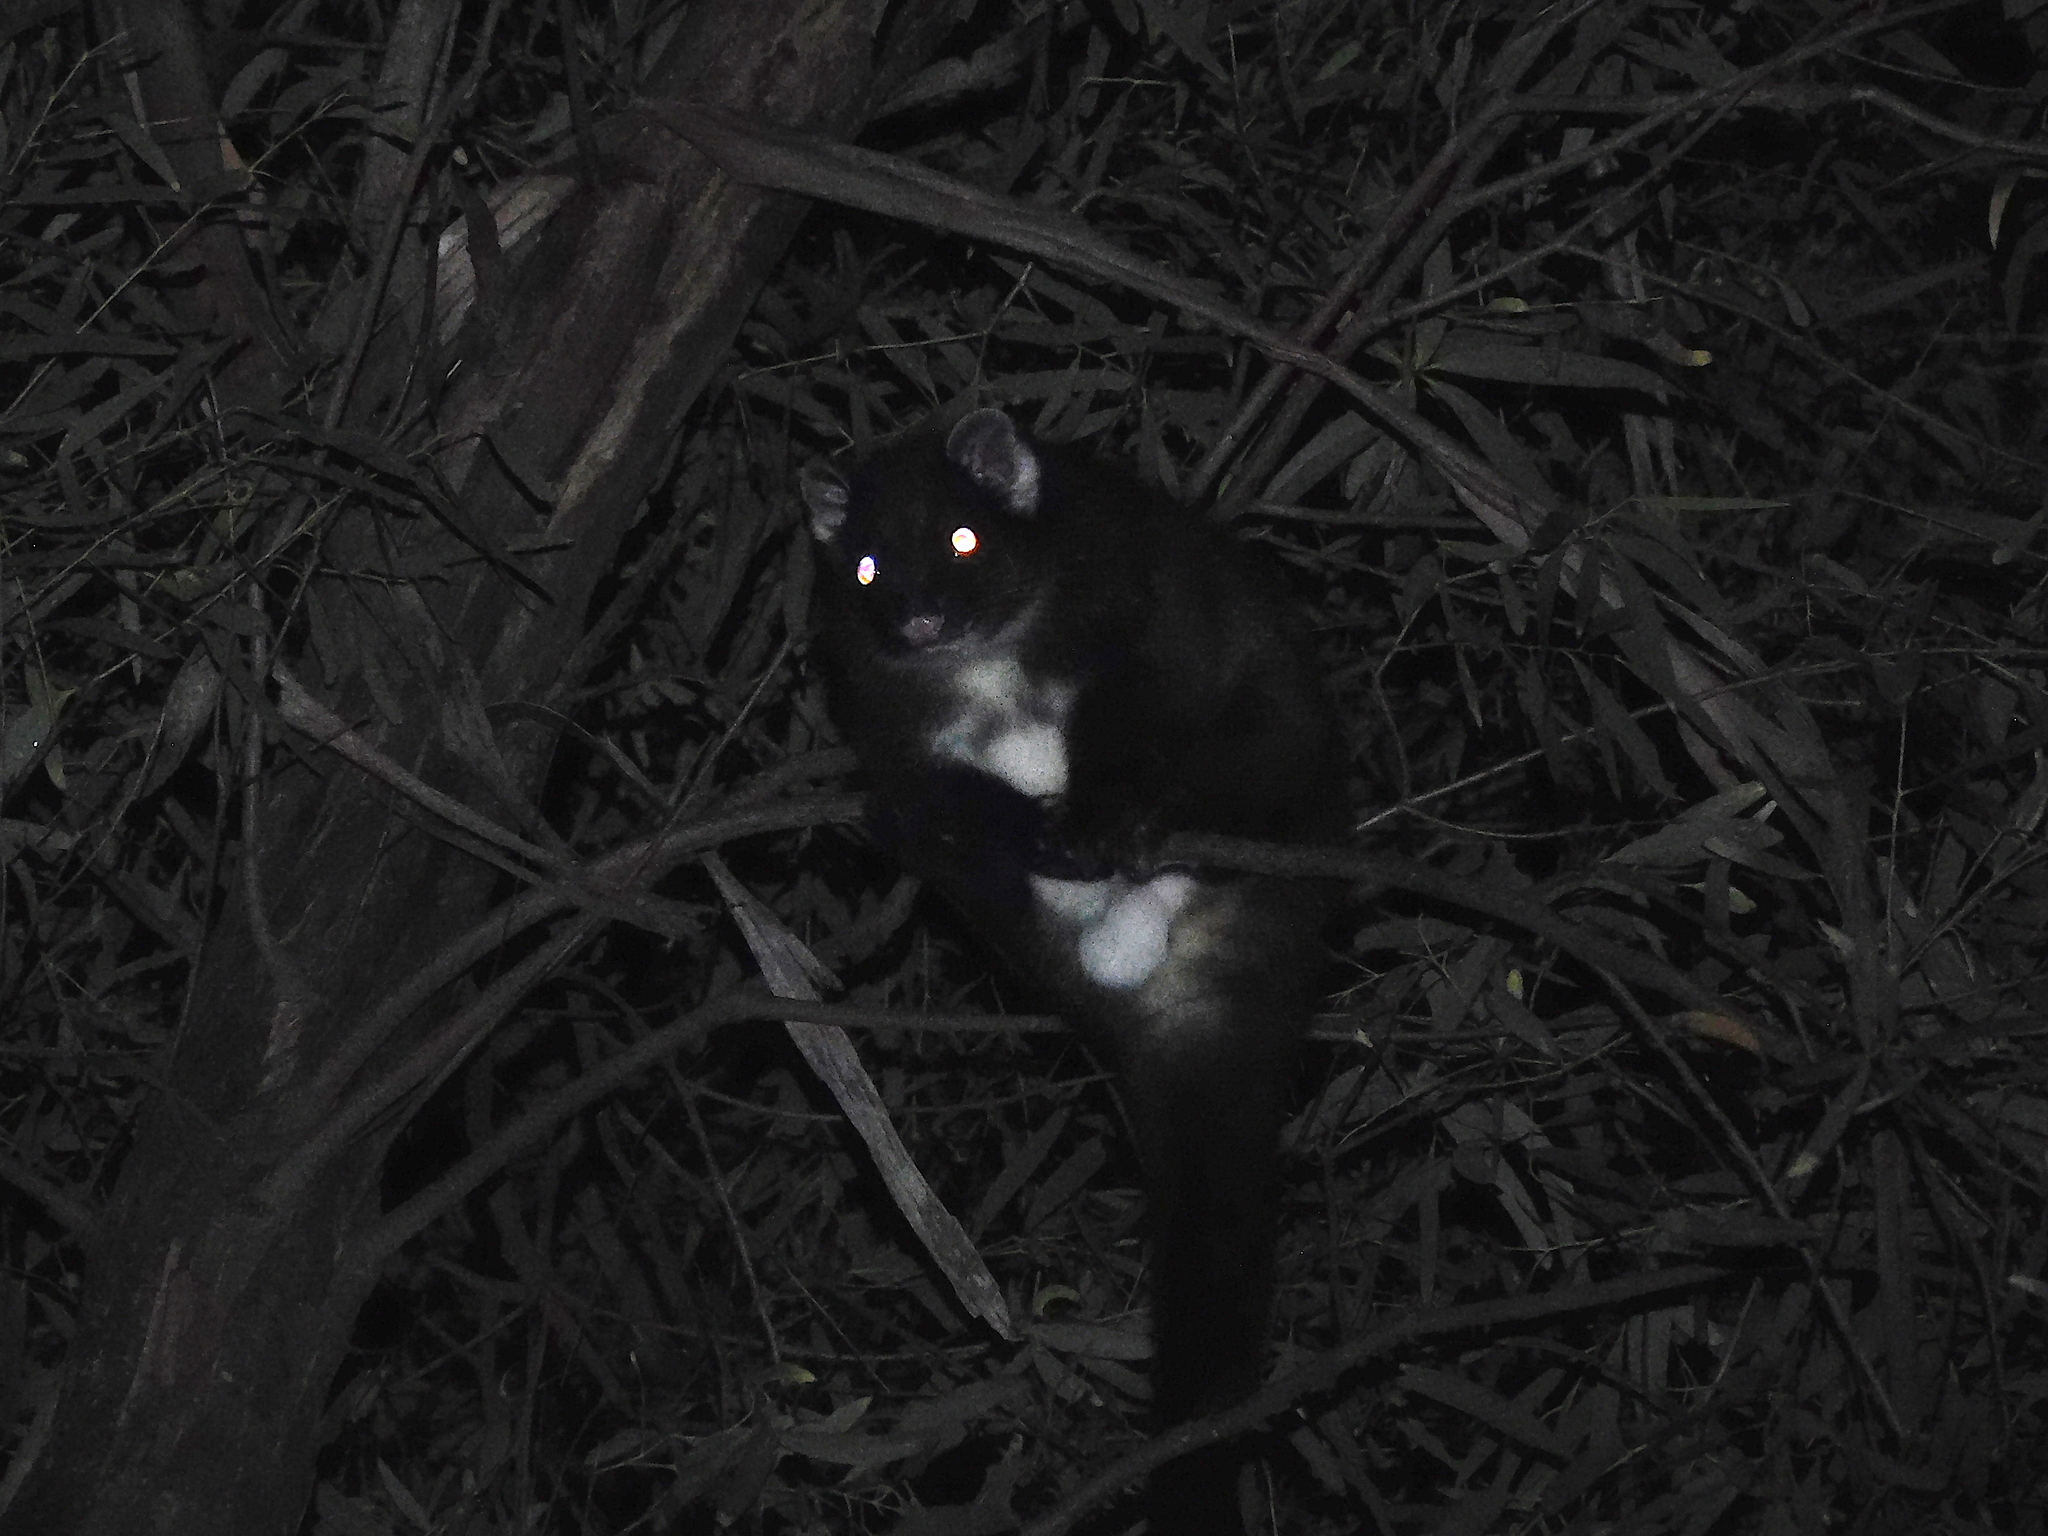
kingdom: Animalia
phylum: Chordata
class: Mammalia
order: Diprotodontia
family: Pseudocheiridae
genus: Pseudocheirus
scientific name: Pseudocheirus peregrinus
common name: Common ringtail possum
